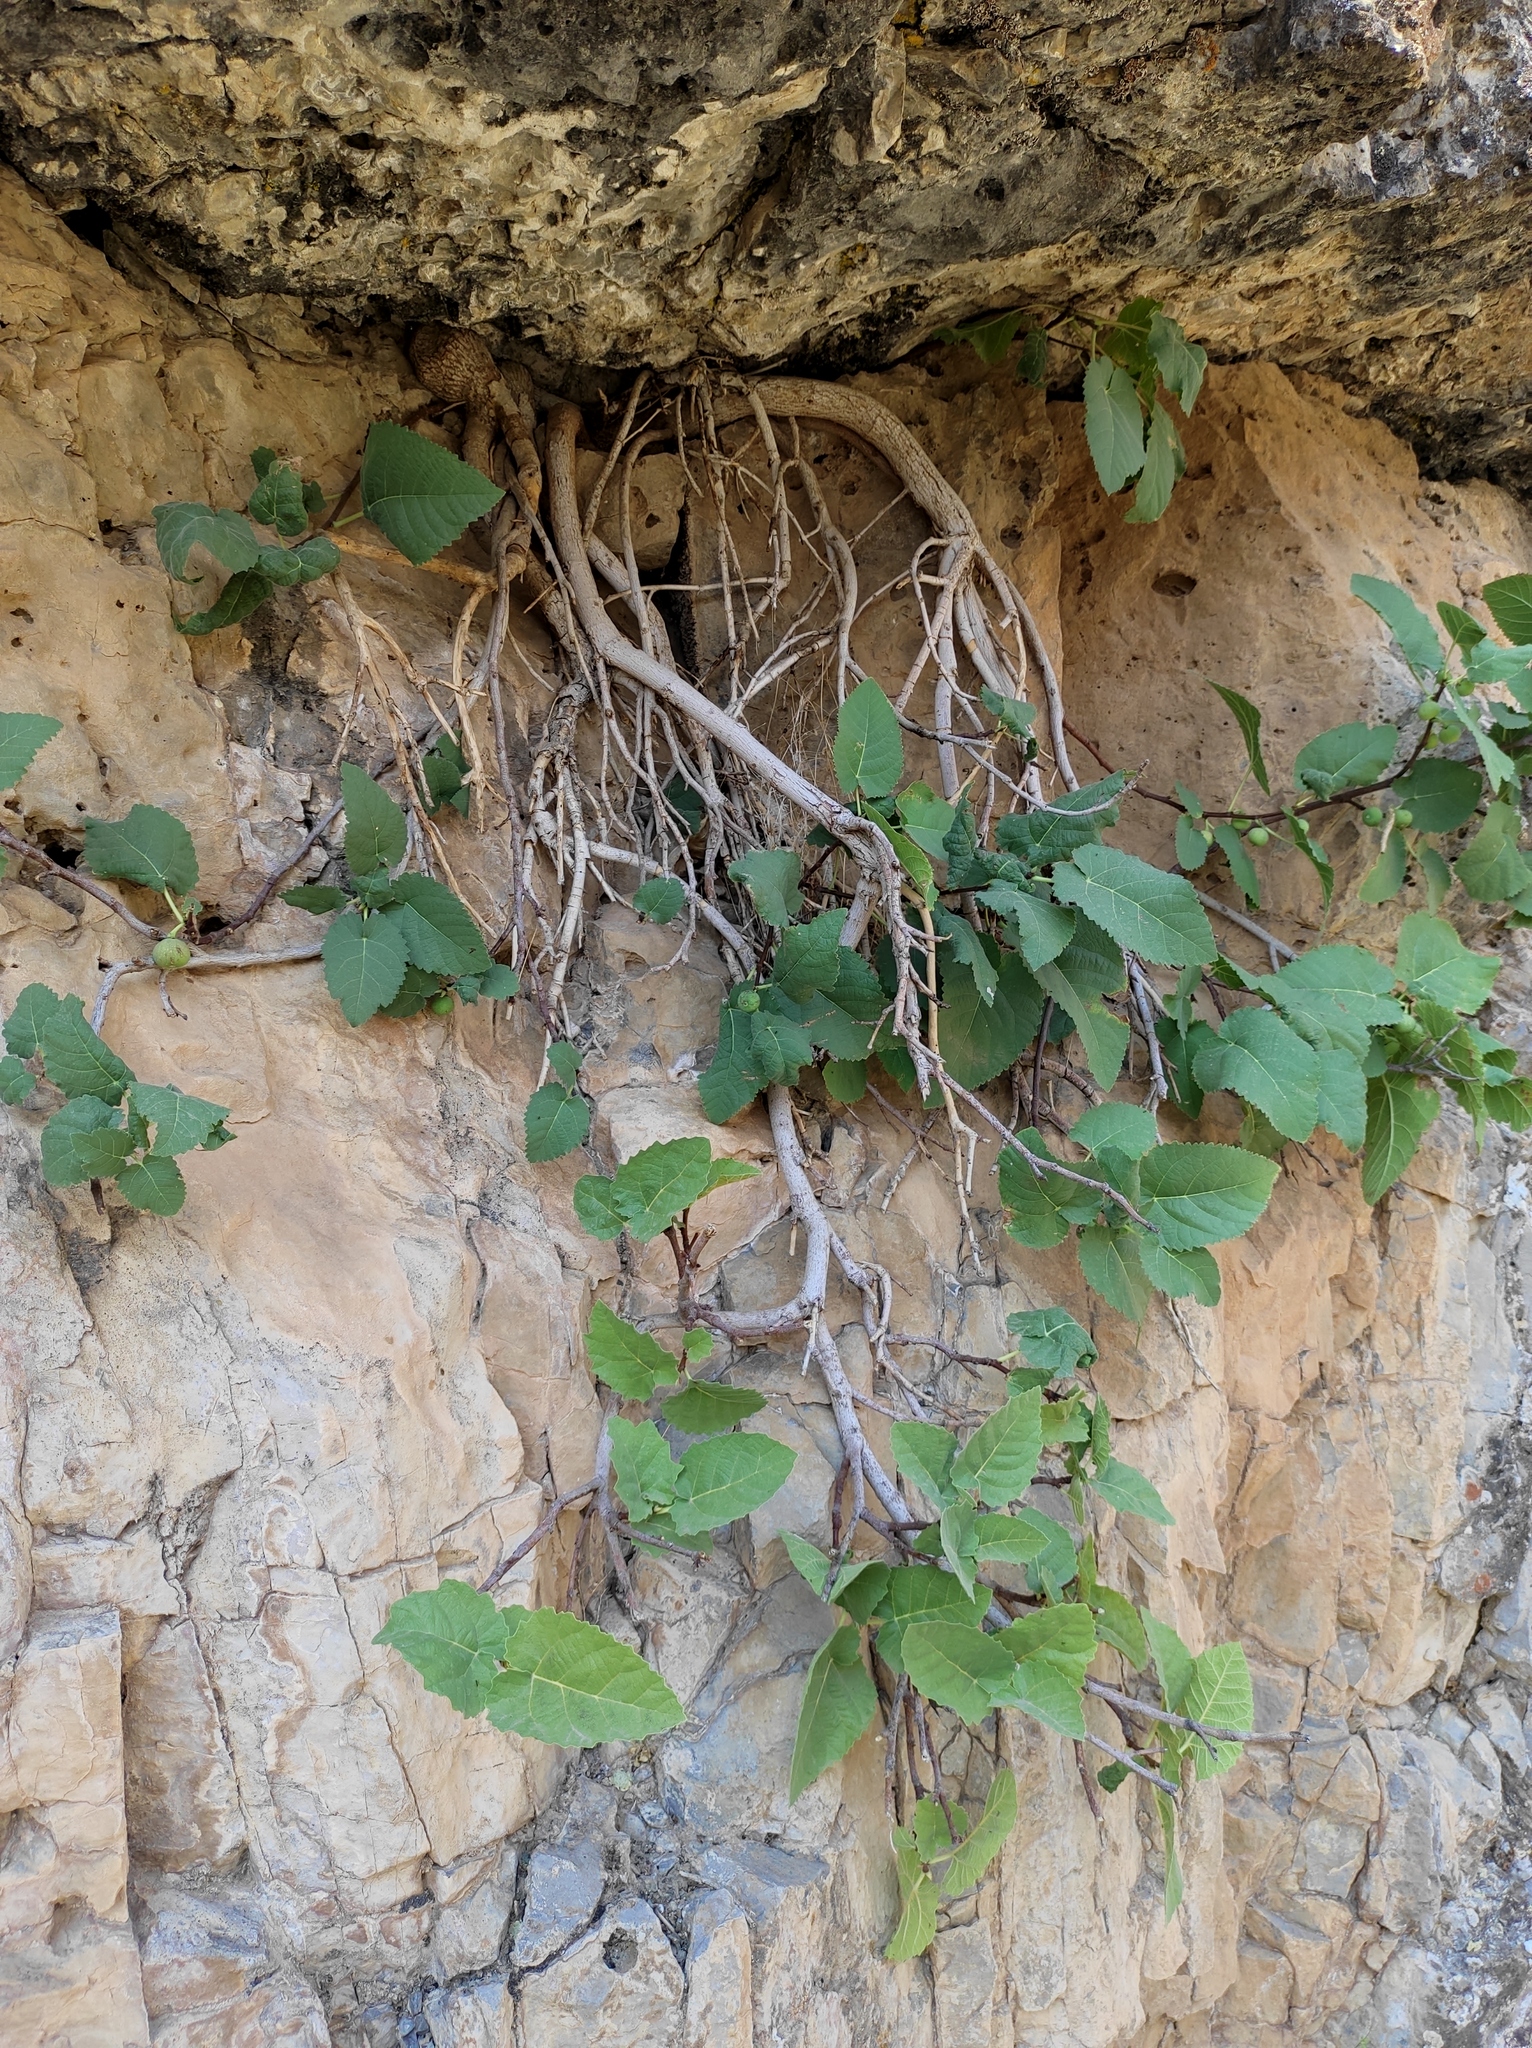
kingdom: Plantae
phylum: Tracheophyta
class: Magnoliopsida
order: Rosales
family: Moraceae
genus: Ficus
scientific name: Ficus carica
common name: Fig
